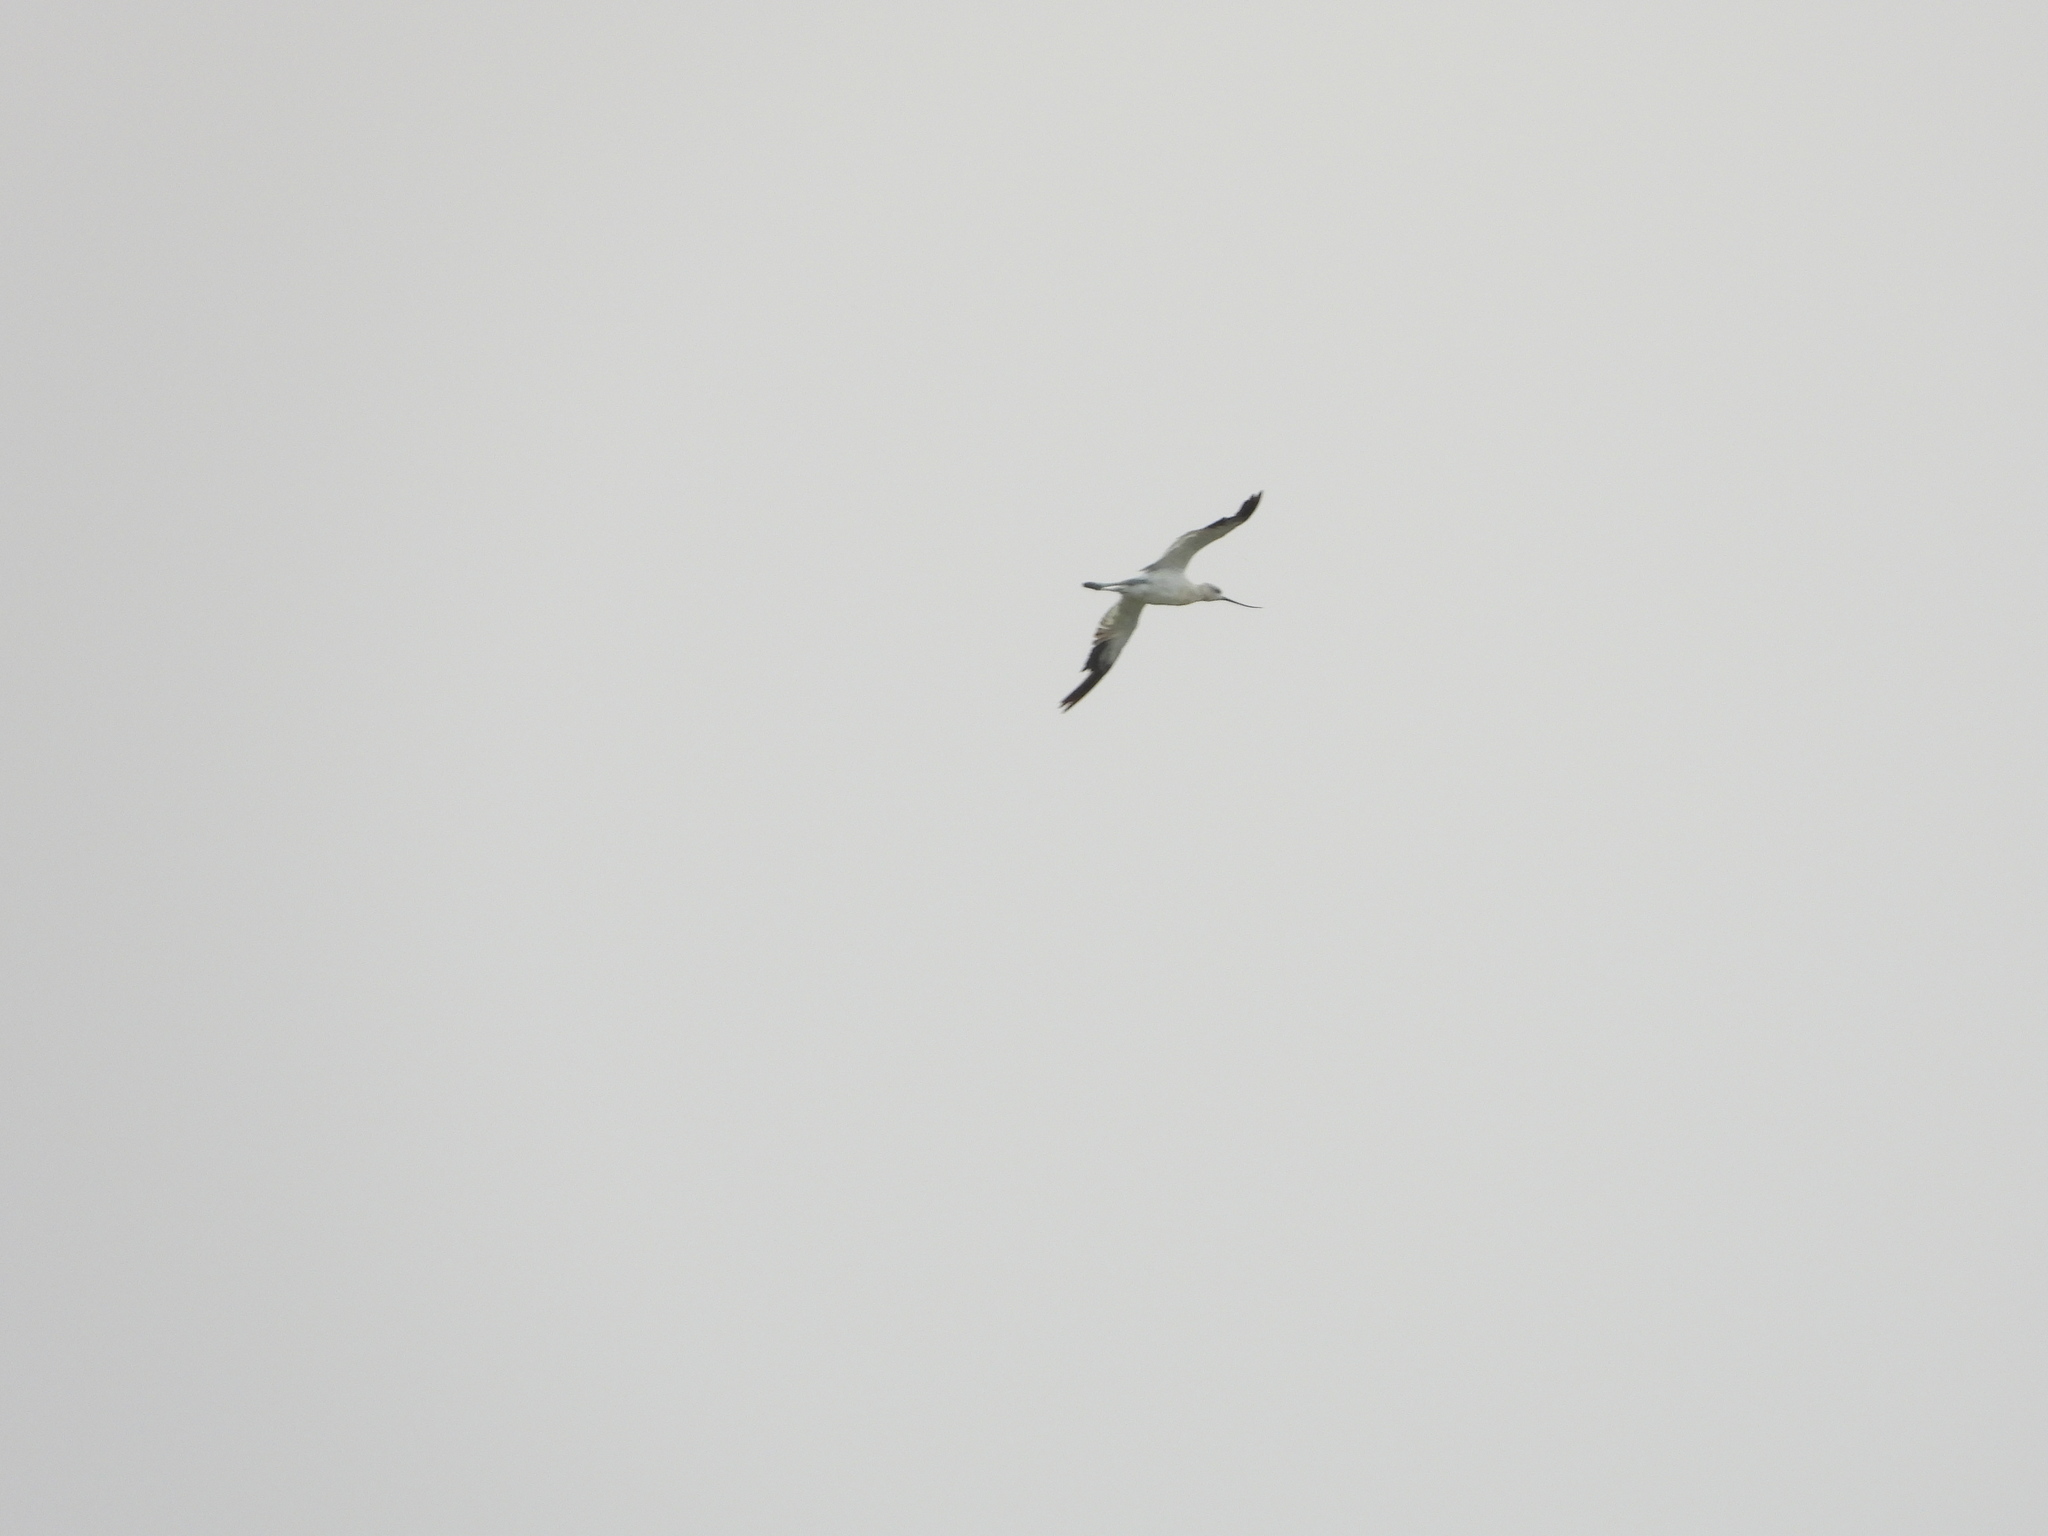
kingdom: Animalia
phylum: Chordata
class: Aves
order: Charadriiformes
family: Recurvirostridae
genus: Recurvirostra
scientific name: Recurvirostra americana
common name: American avocet
